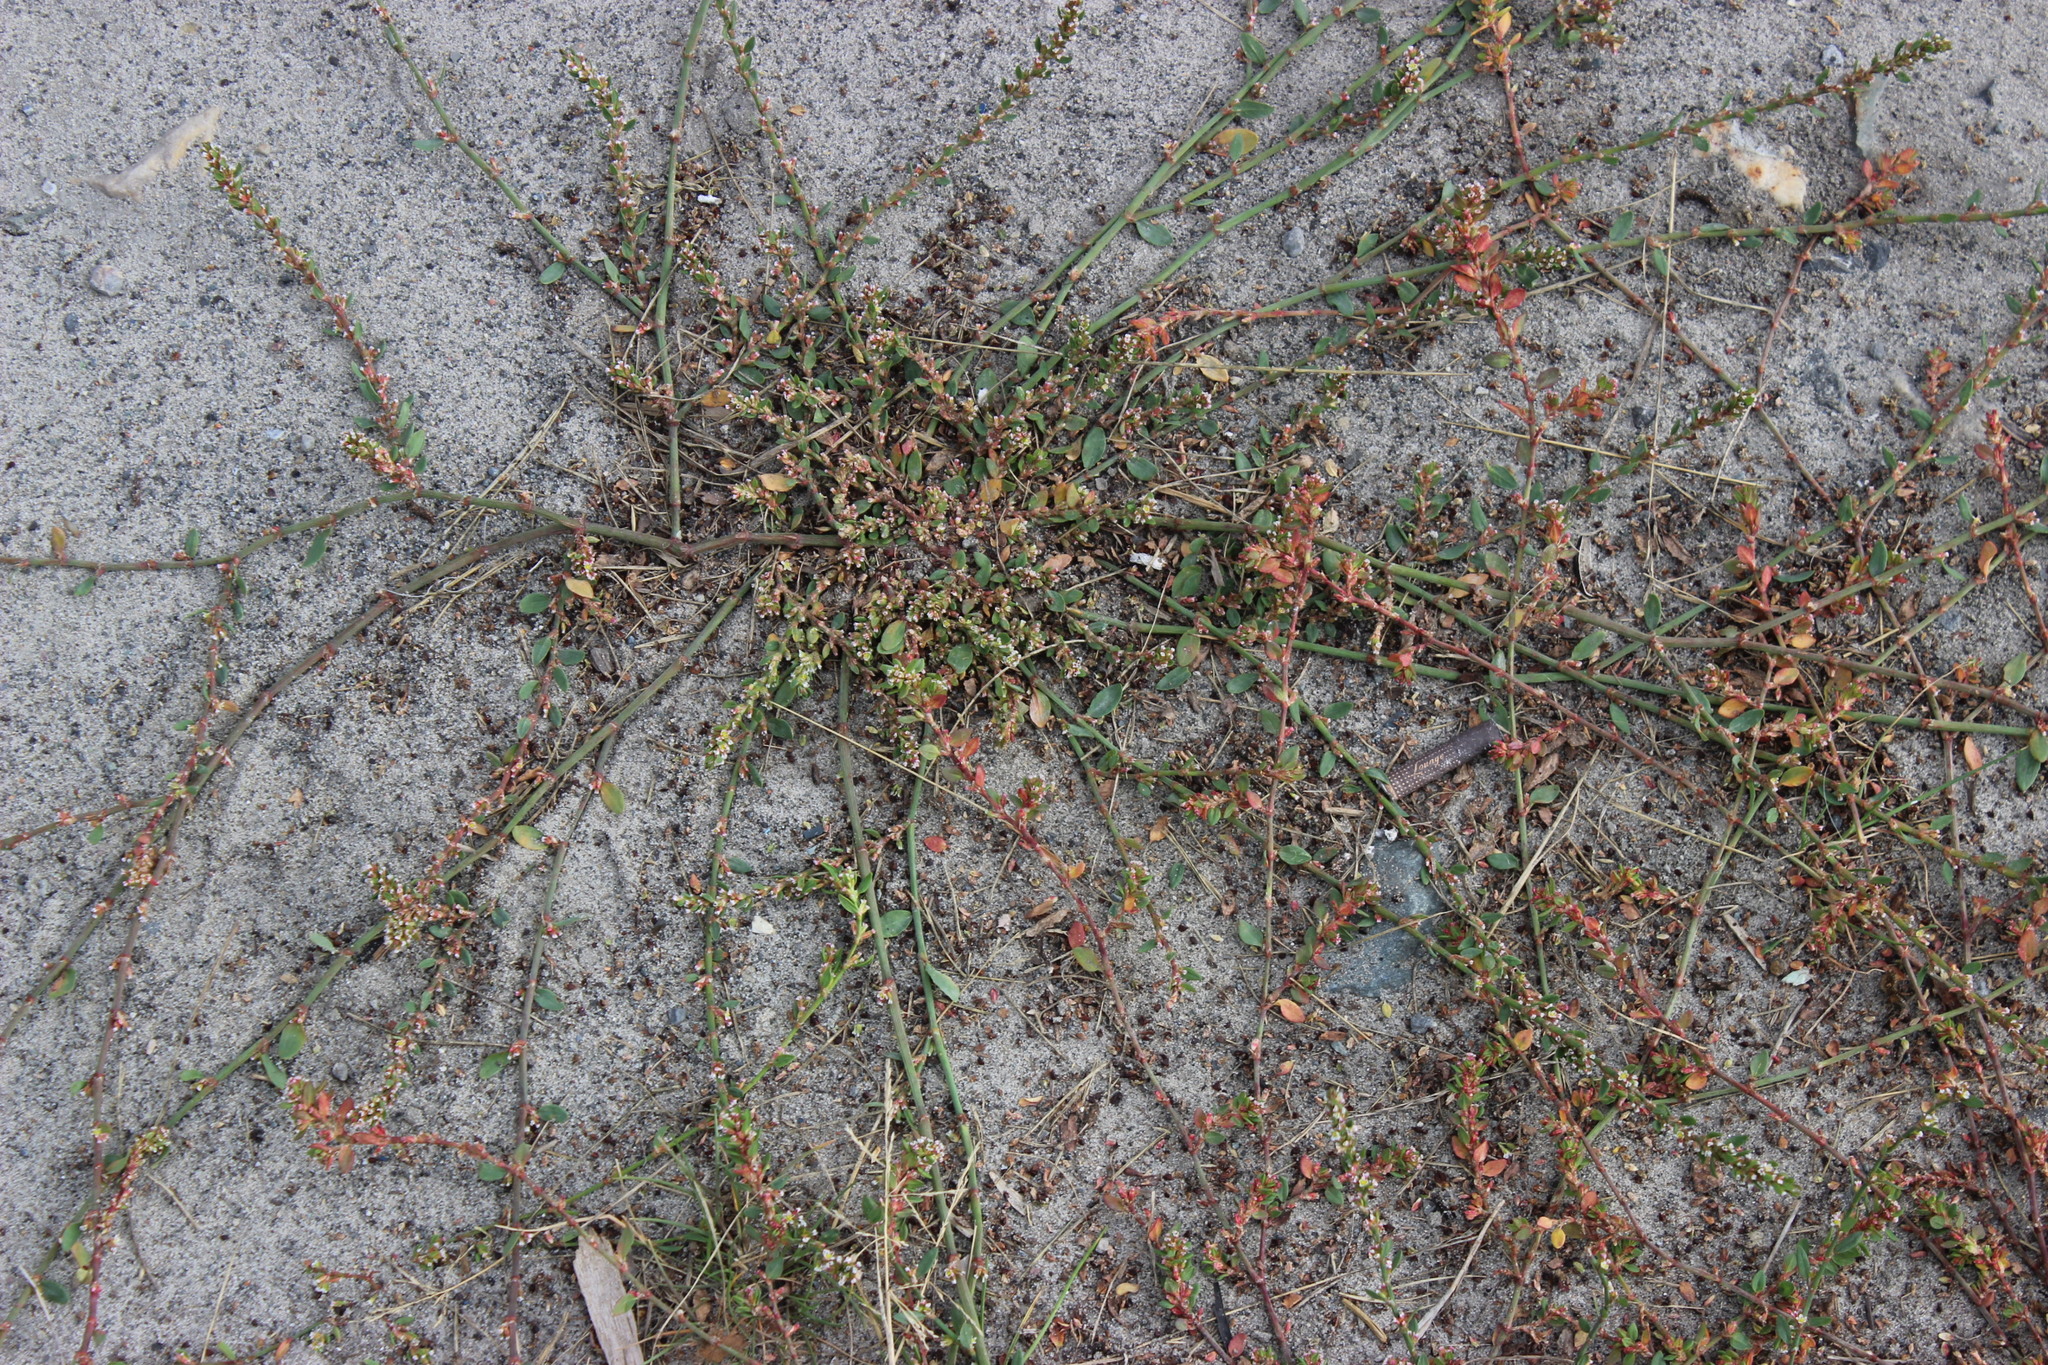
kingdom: Plantae
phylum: Tracheophyta
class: Magnoliopsida
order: Caryophyllales
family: Polygonaceae
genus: Polygonum
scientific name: Polygonum
